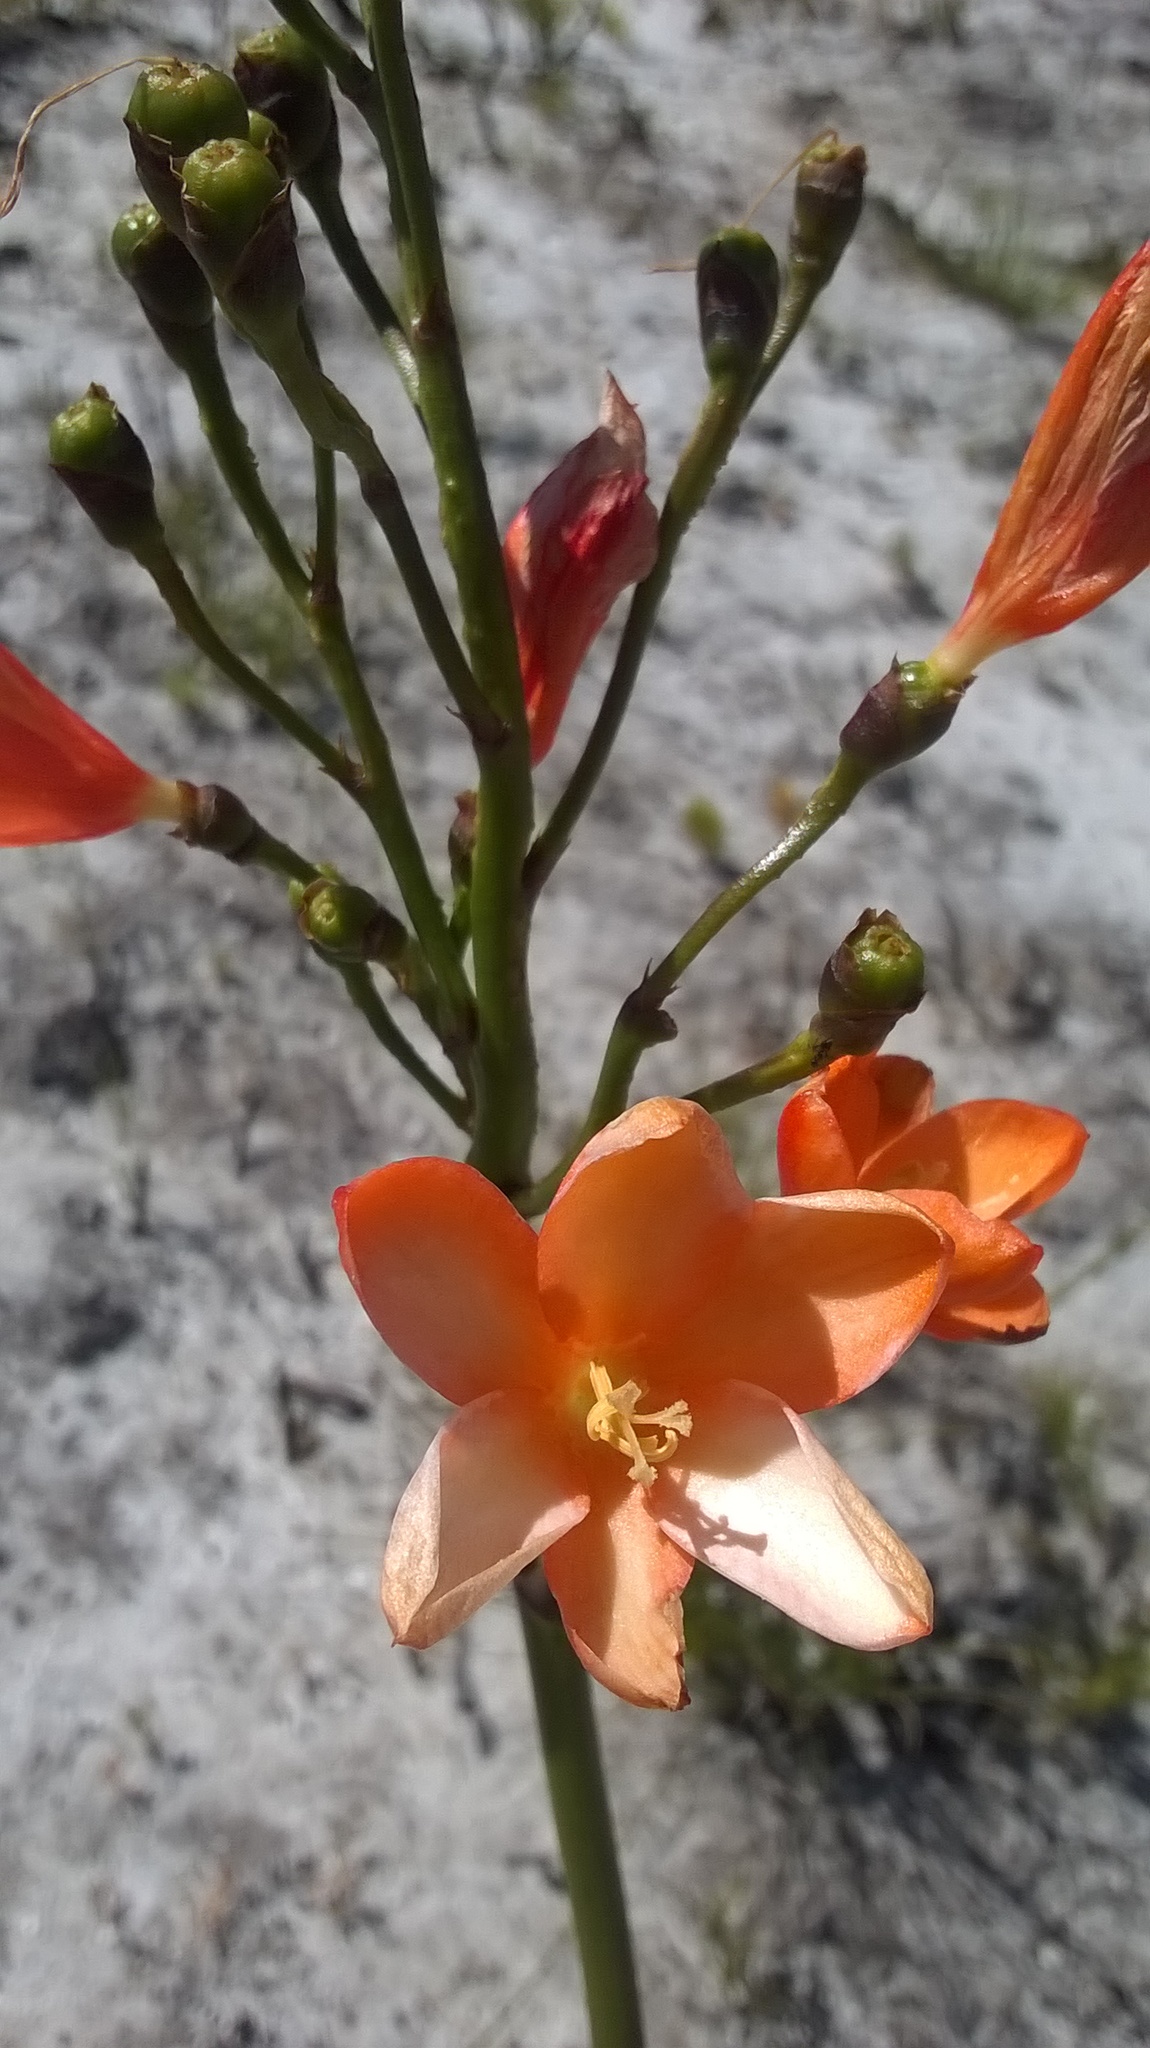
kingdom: Plantae
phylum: Tracheophyta
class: Liliopsida
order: Asparagales
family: Iridaceae
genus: Pillansia
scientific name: Pillansia templemannii
